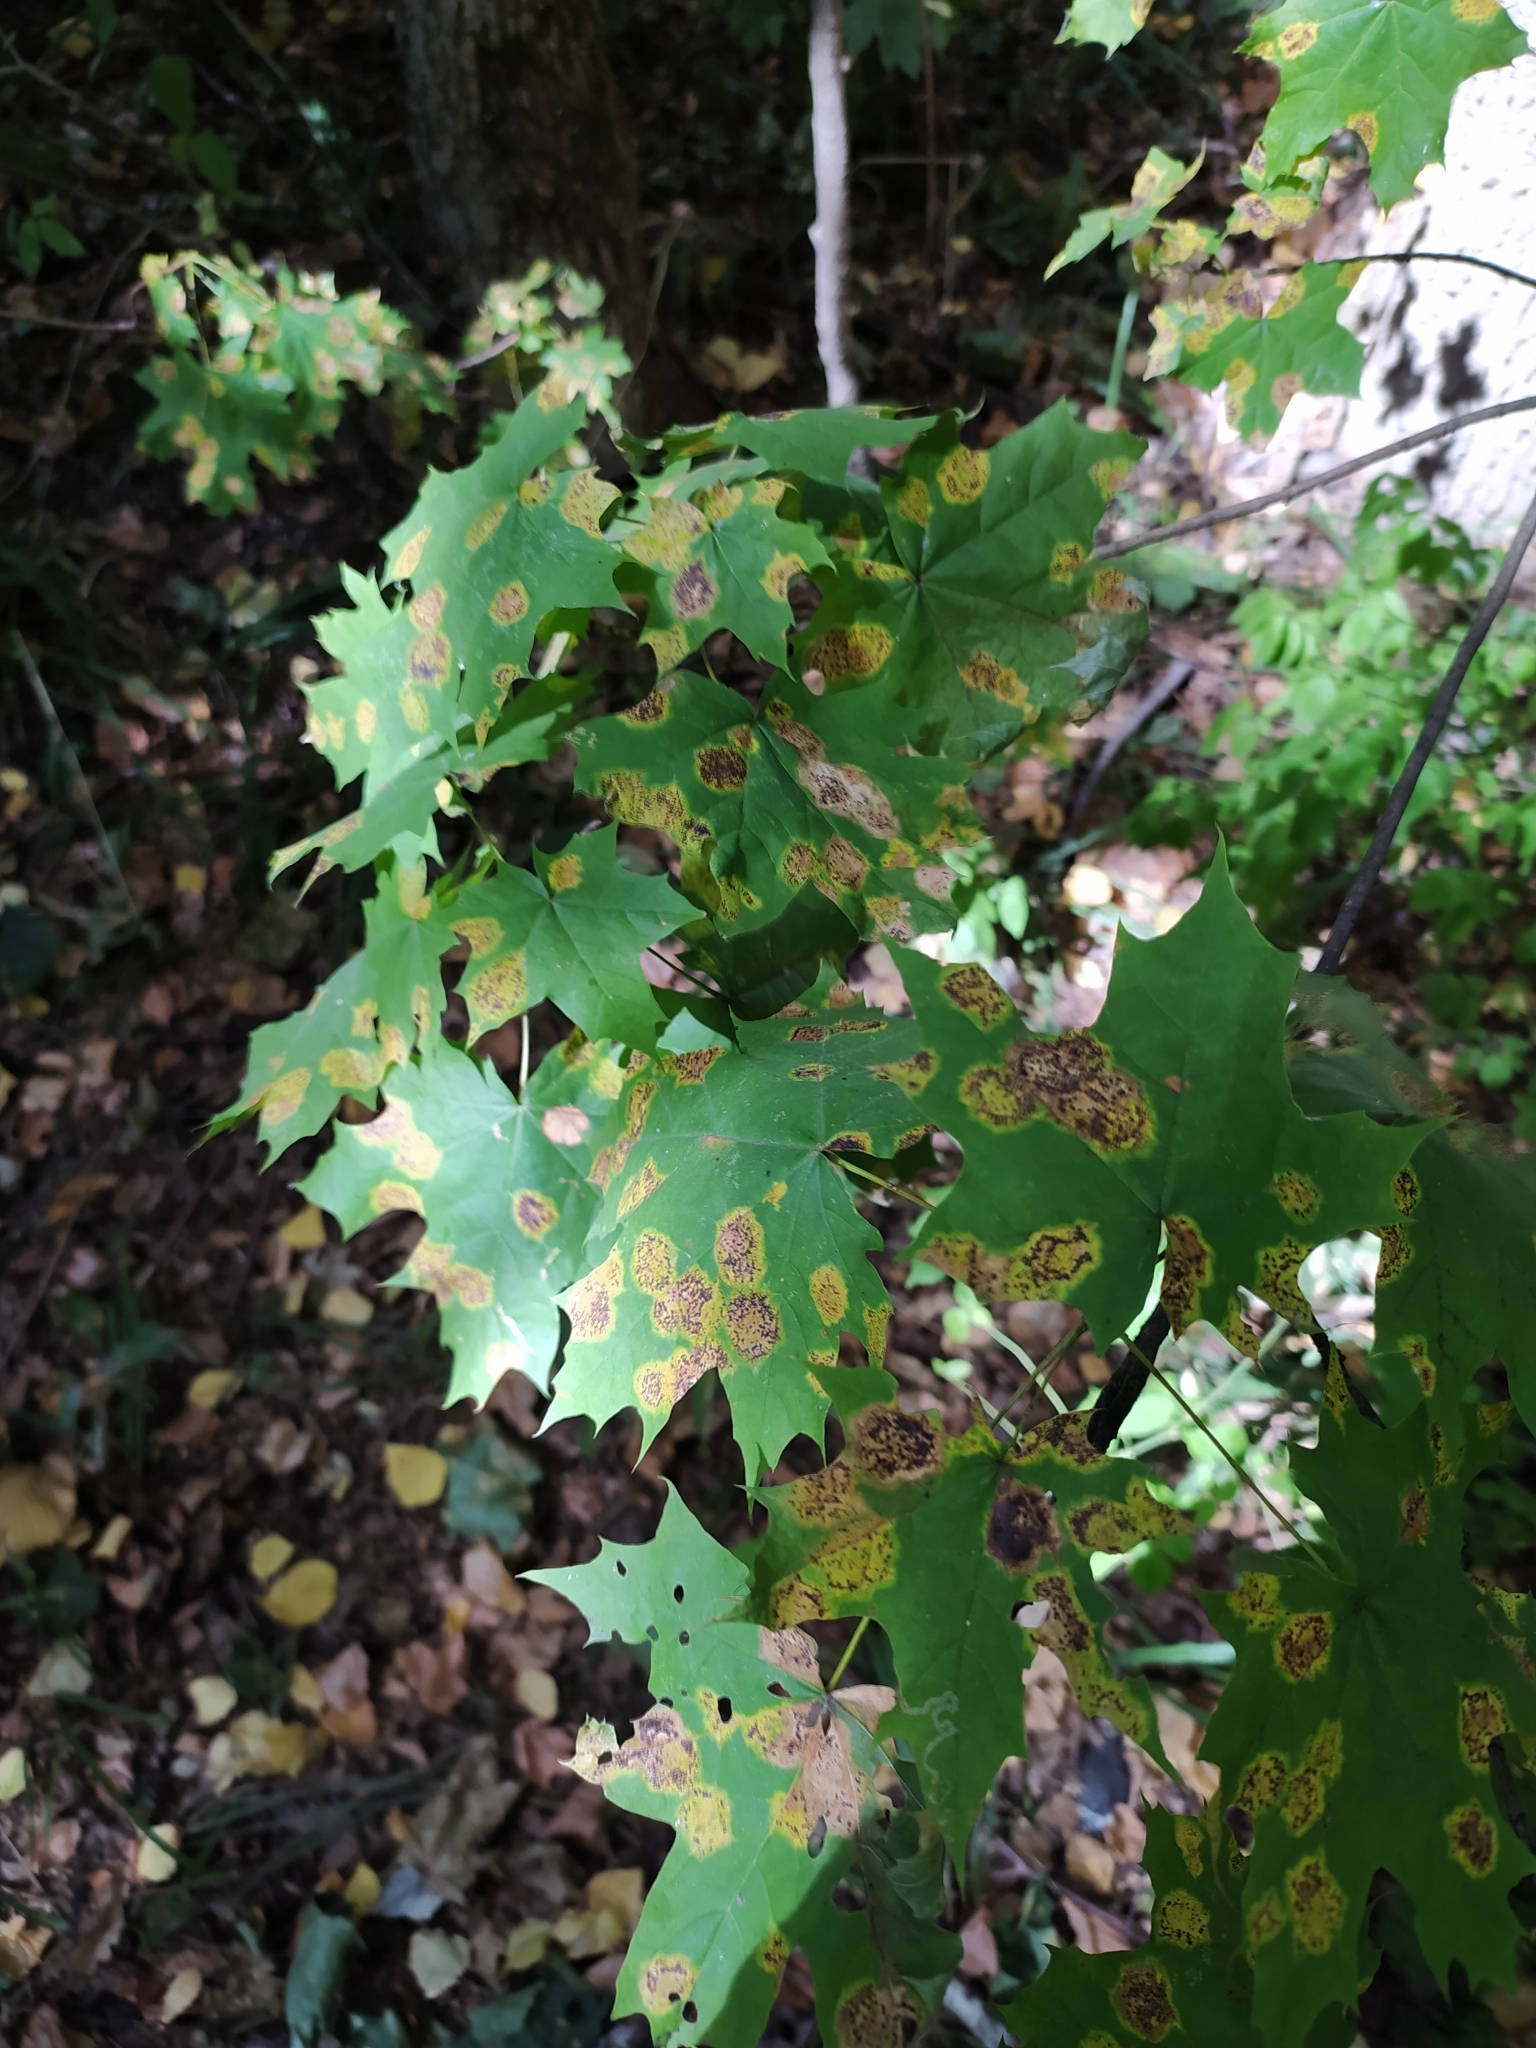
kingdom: Fungi
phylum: Ascomycota
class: Leotiomycetes
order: Rhytismatales
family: Rhytismataceae
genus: Rhytisma
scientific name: Rhytisma acerinum
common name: European tar spot
